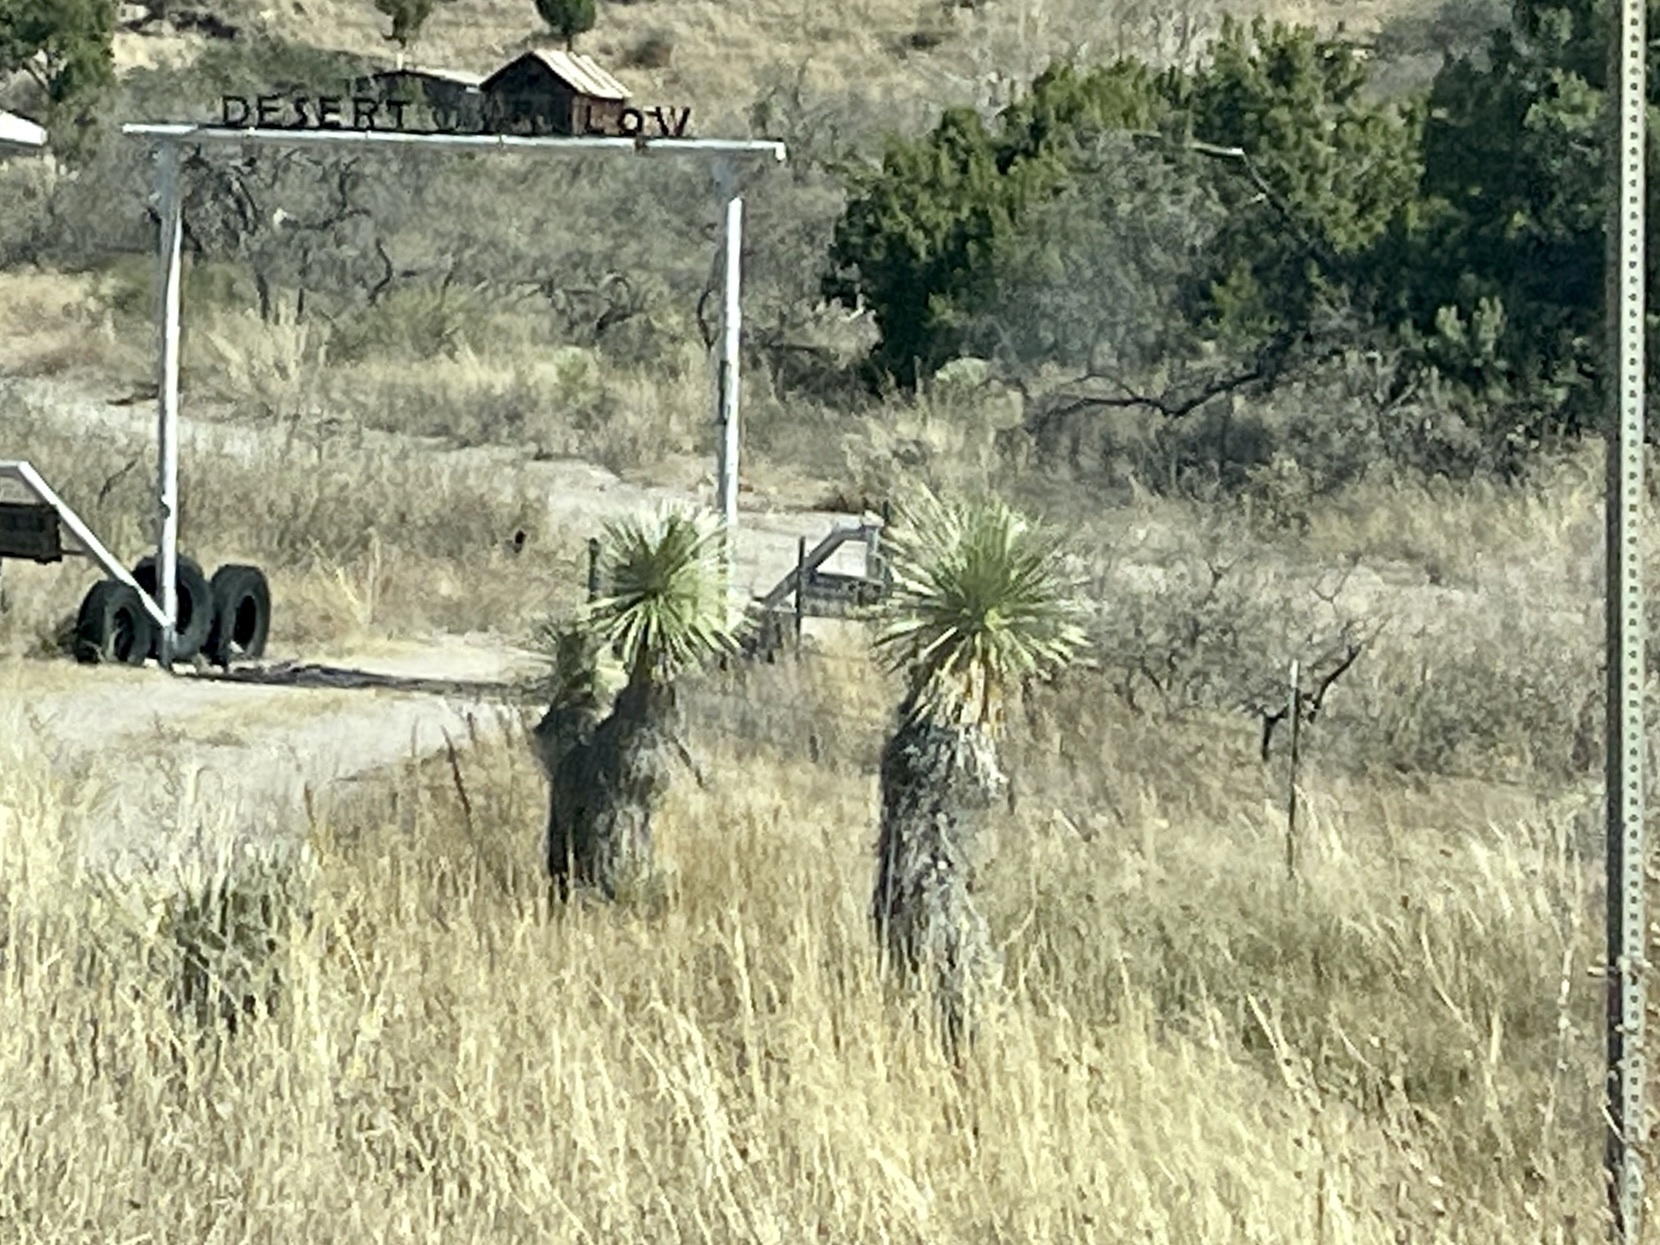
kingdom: Plantae
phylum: Tracheophyta
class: Liliopsida
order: Asparagales
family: Asparagaceae
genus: Yucca
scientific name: Yucca elata
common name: Palmella
